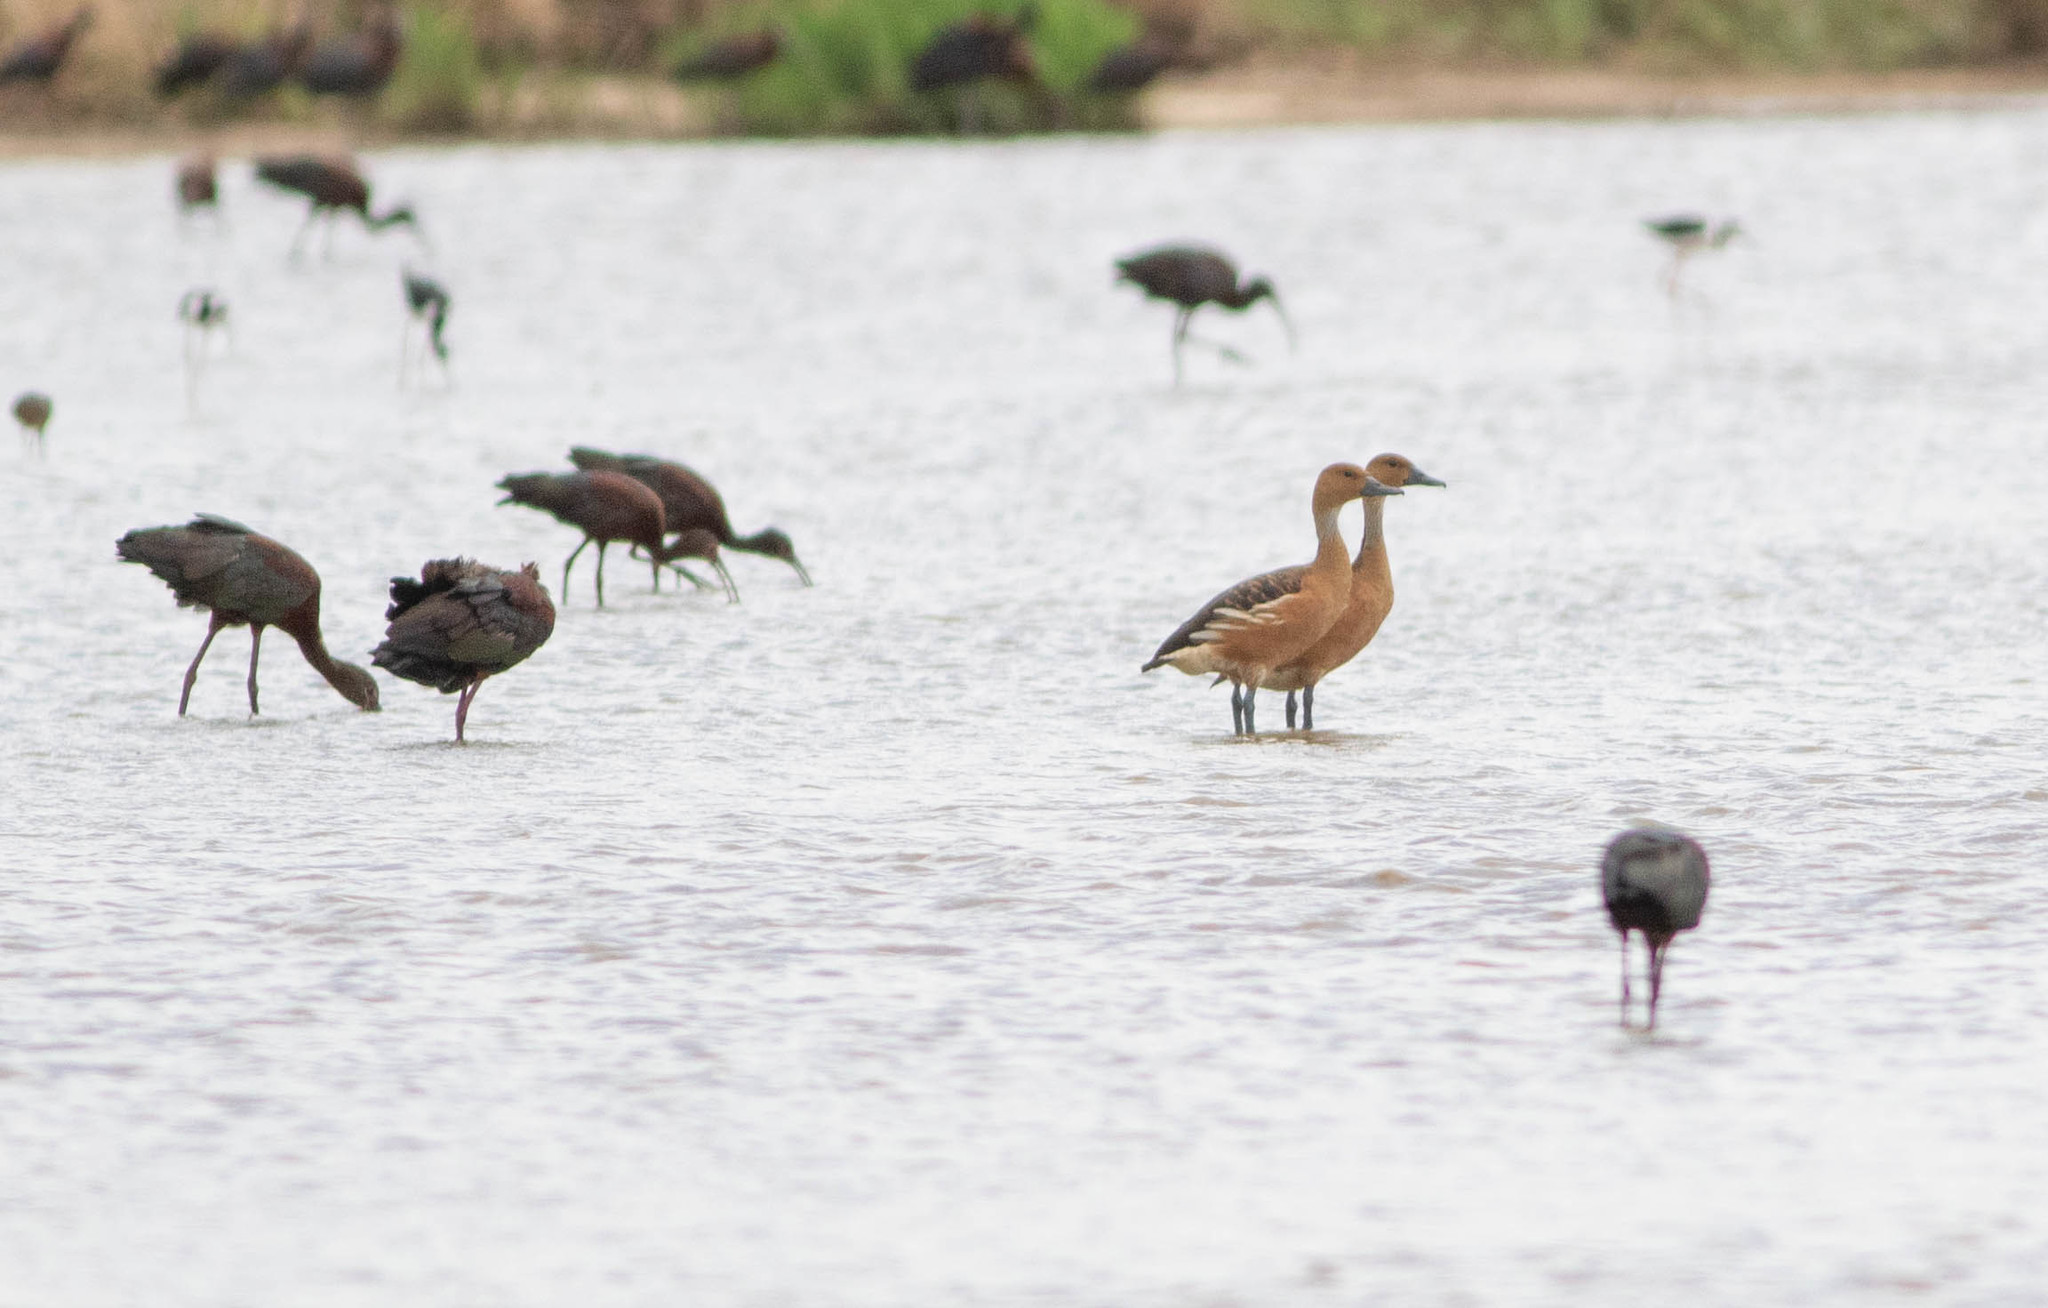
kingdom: Animalia
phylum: Chordata
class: Aves
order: Anseriformes
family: Anatidae
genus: Dendrocygna
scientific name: Dendrocygna bicolor
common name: Fulvous whistling duck
